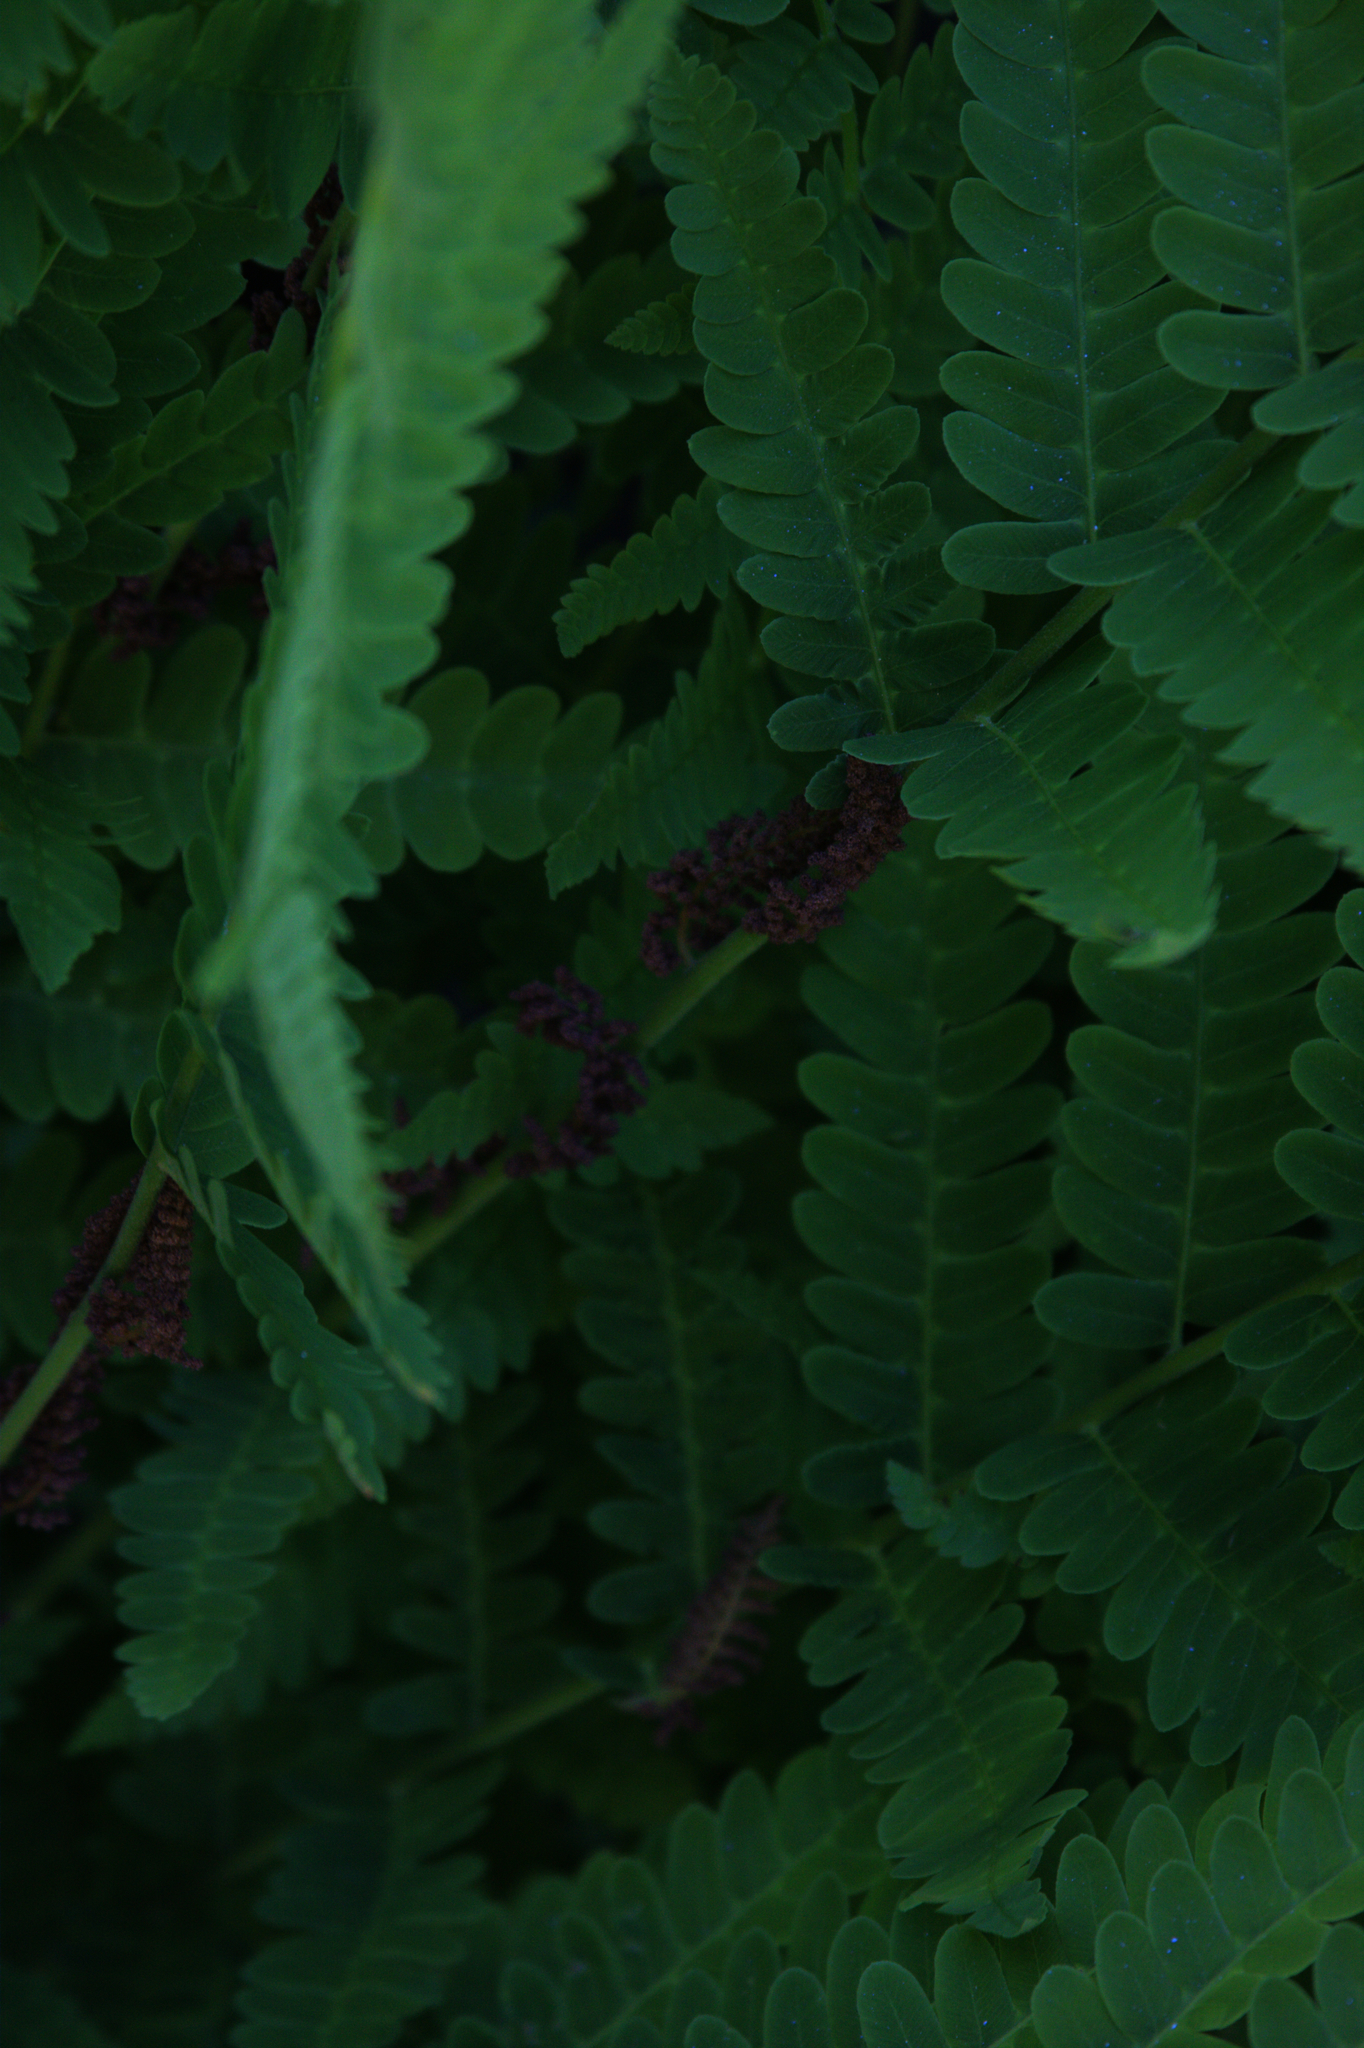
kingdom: Plantae
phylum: Tracheophyta
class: Polypodiopsida
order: Osmundales
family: Osmundaceae
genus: Claytosmunda
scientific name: Claytosmunda claytoniana
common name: Clayton's fern
